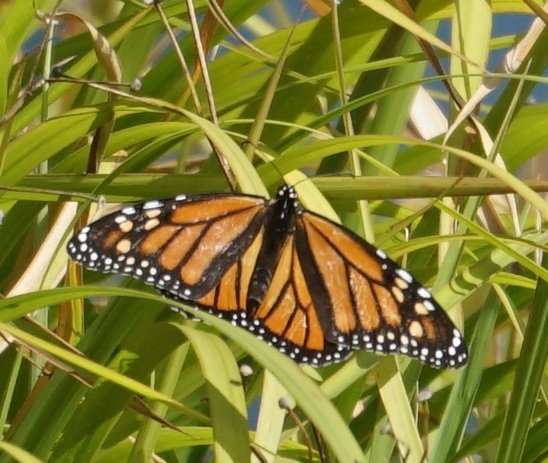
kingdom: Animalia
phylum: Arthropoda
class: Insecta
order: Lepidoptera
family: Nymphalidae
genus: Danaus
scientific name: Danaus plexippus
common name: Monarch
